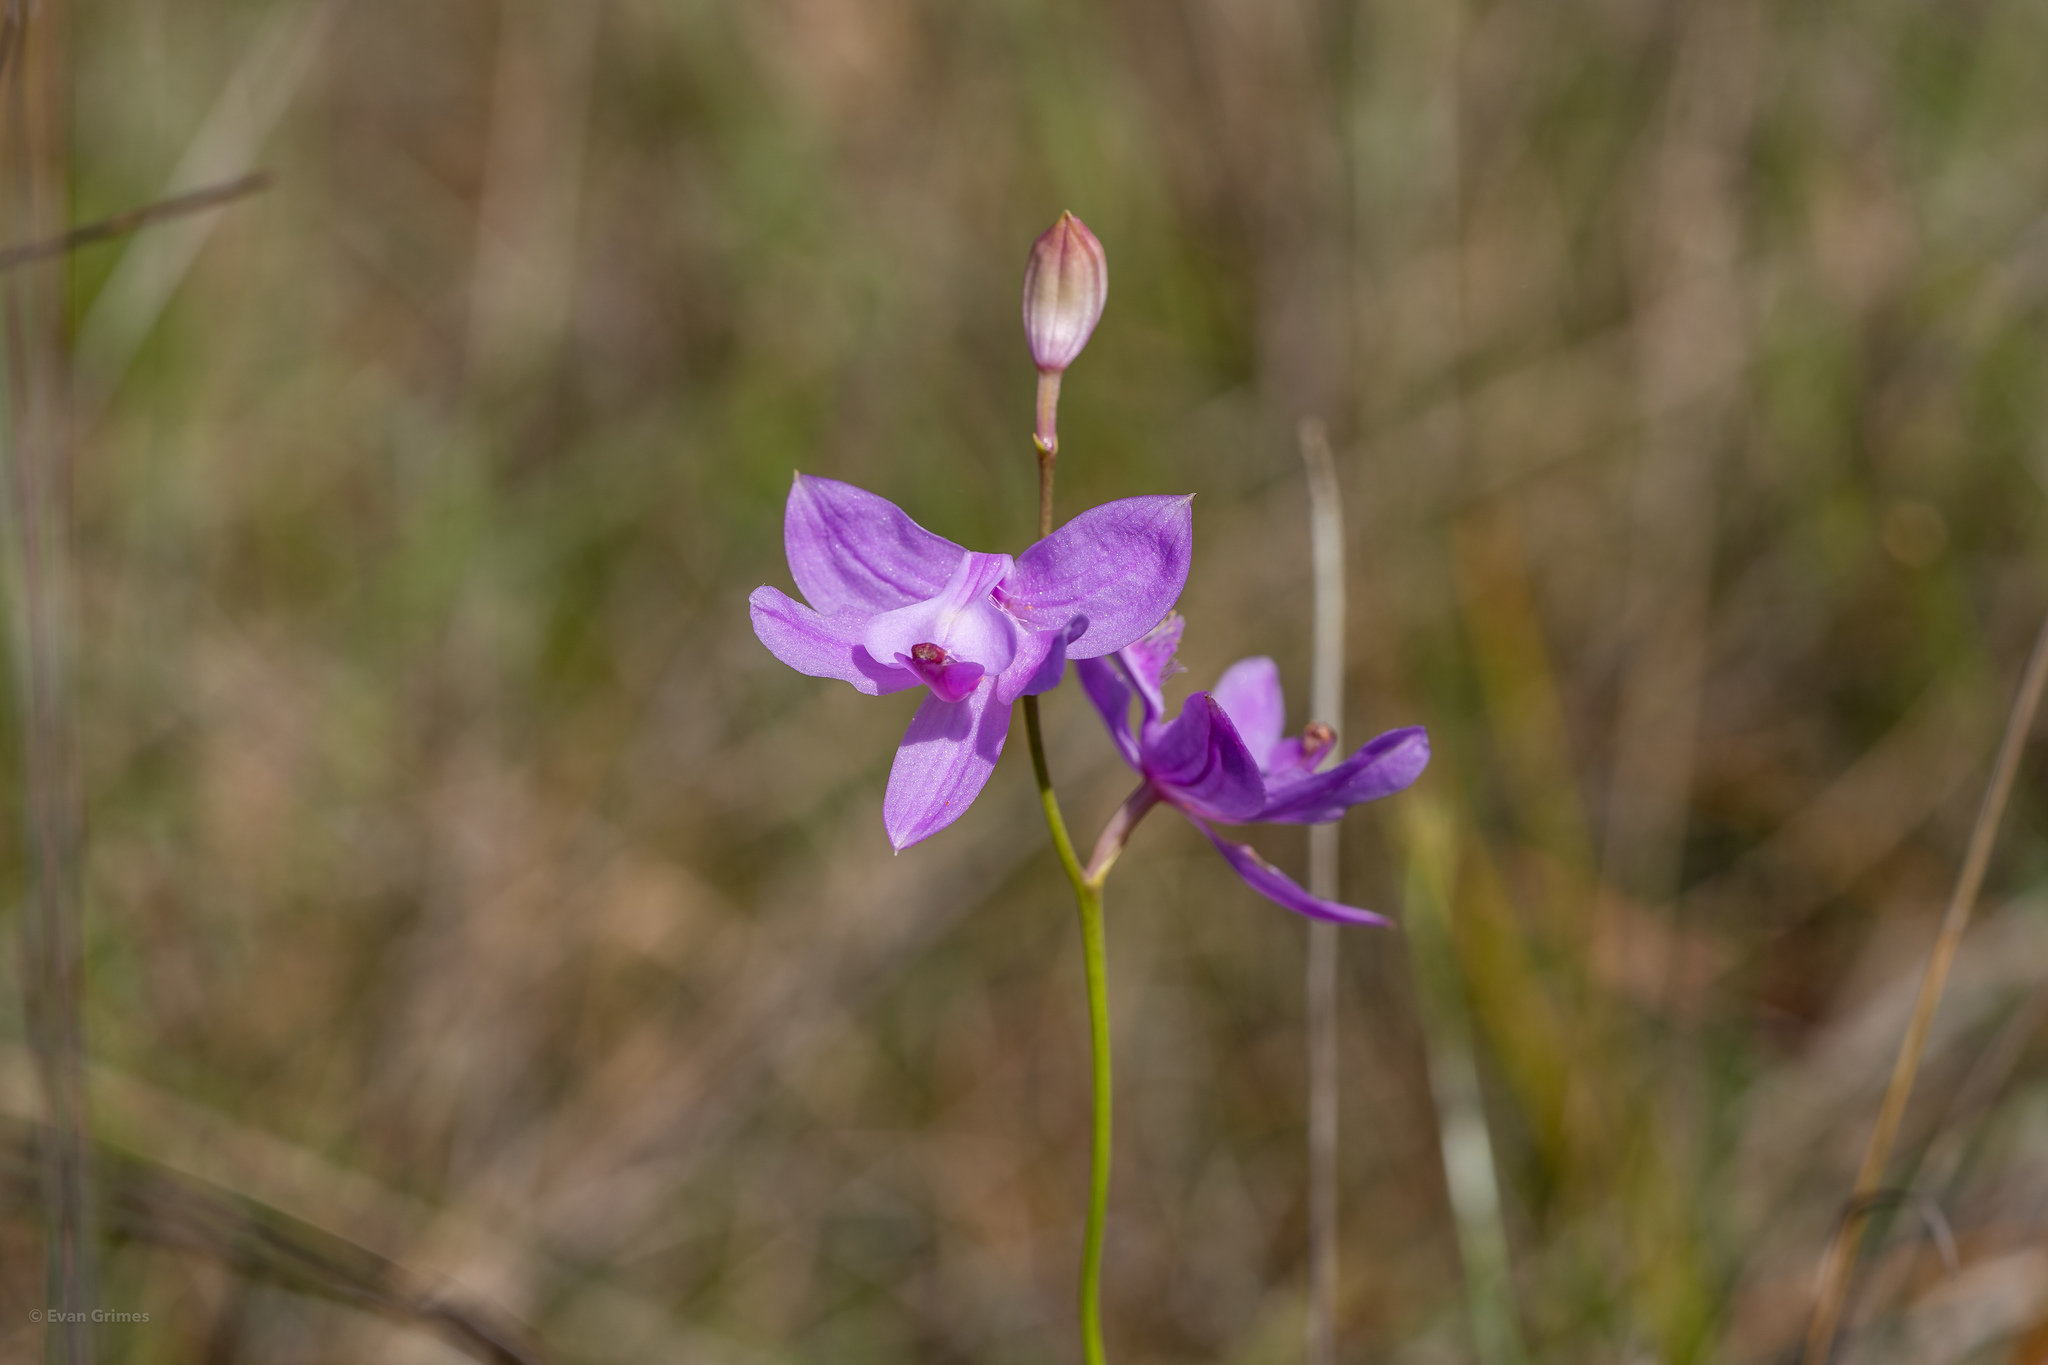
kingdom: Plantae
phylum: Tracheophyta
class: Liliopsida
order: Asparagales
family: Orchidaceae
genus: Calopogon
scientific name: Calopogon tuberosus
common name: Grass-pink
